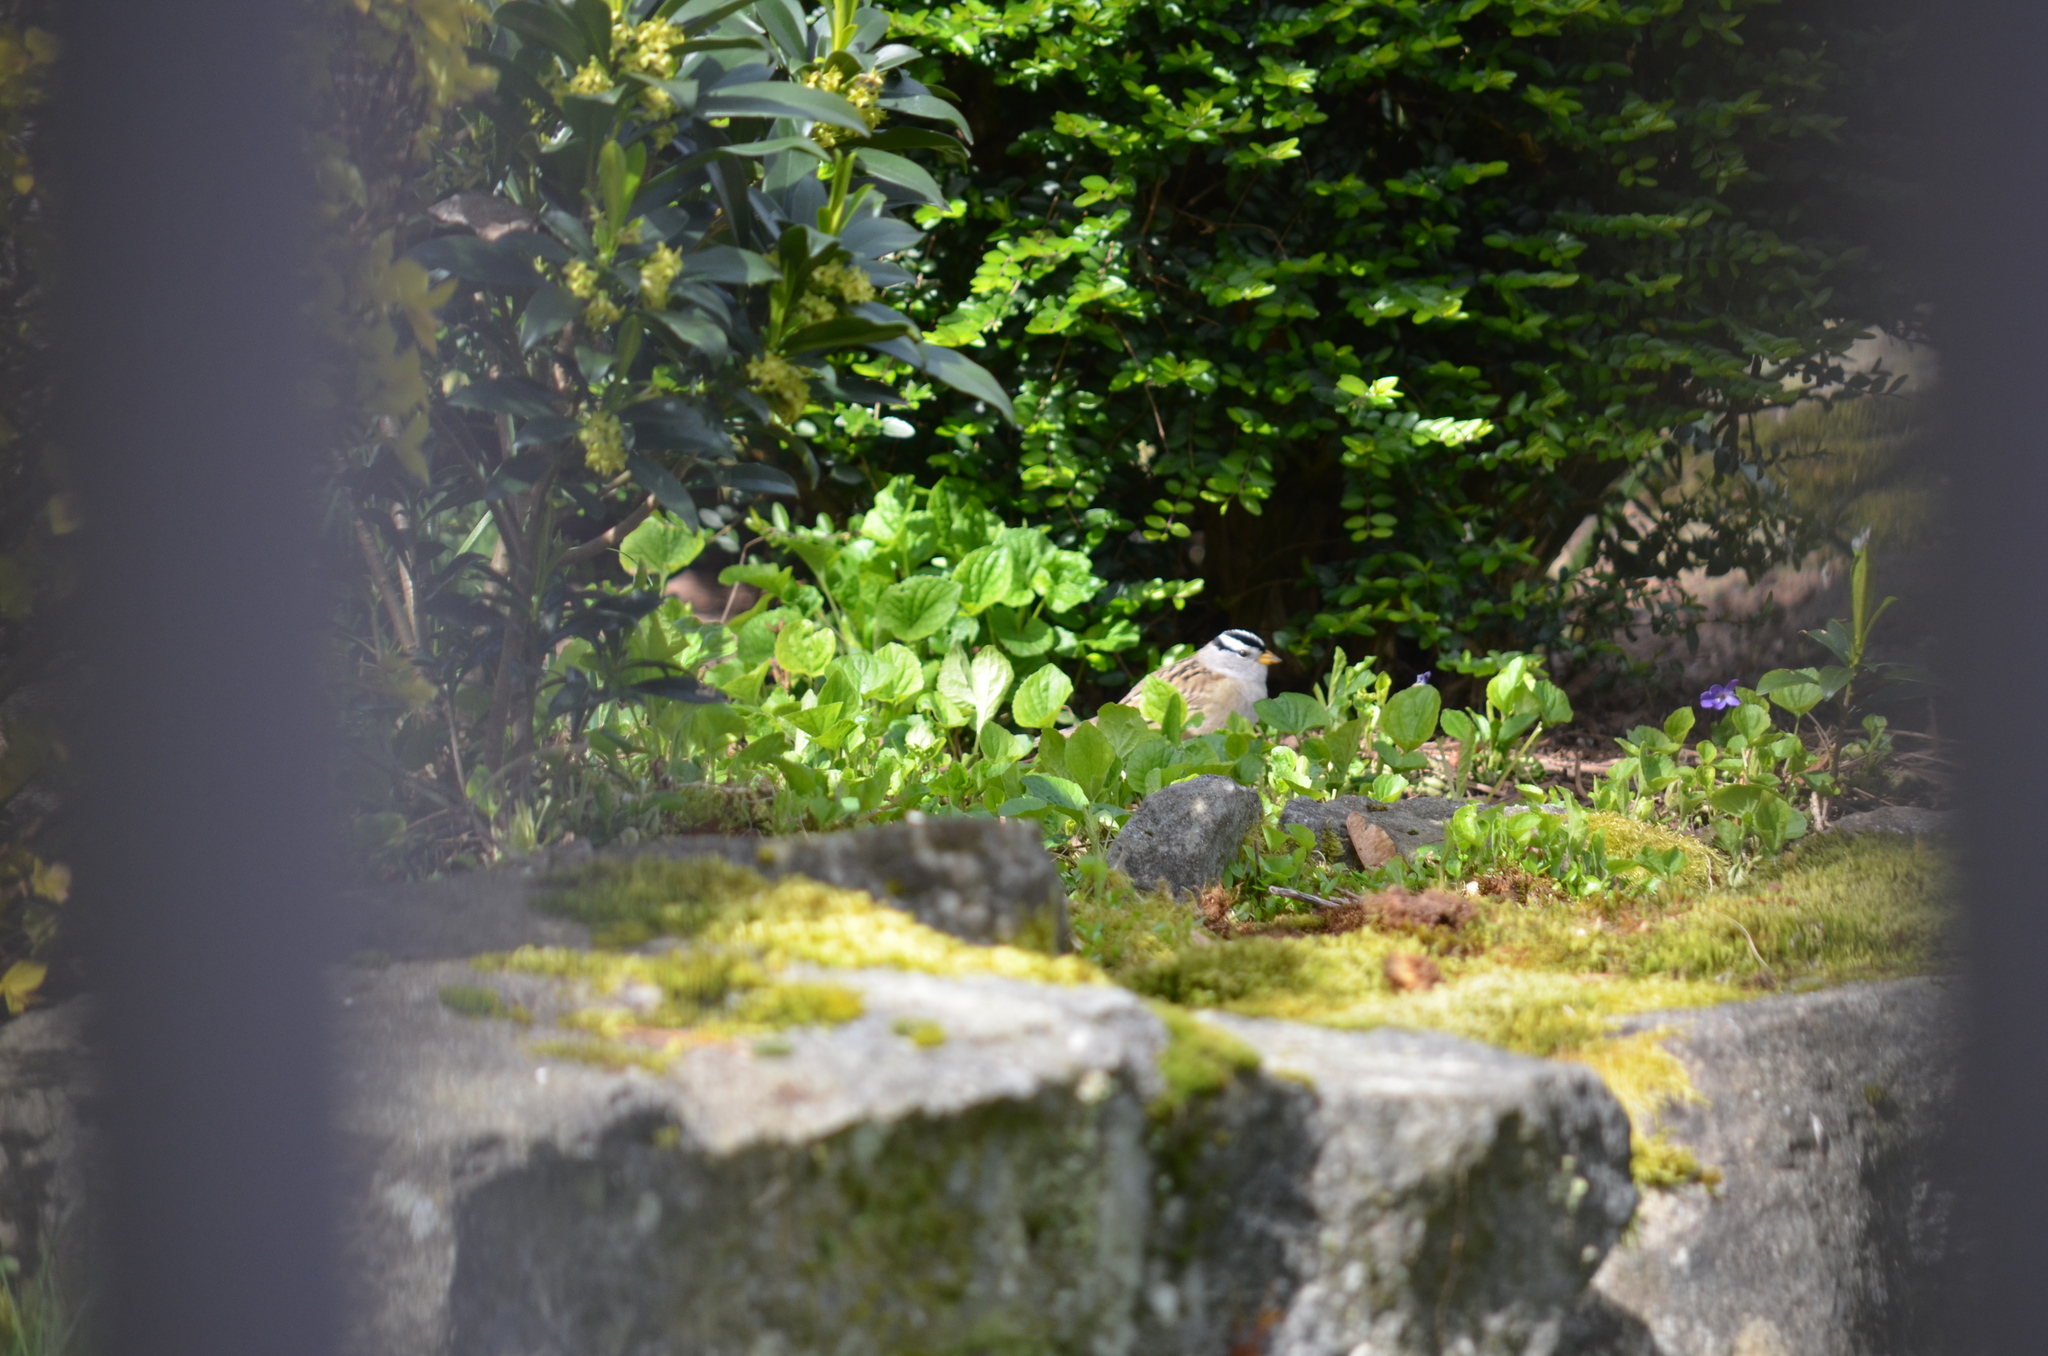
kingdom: Animalia
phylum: Chordata
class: Aves
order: Passeriformes
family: Passerellidae
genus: Zonotrichia
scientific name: Zonotrichia leucophrys
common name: White-crowned sparrow
